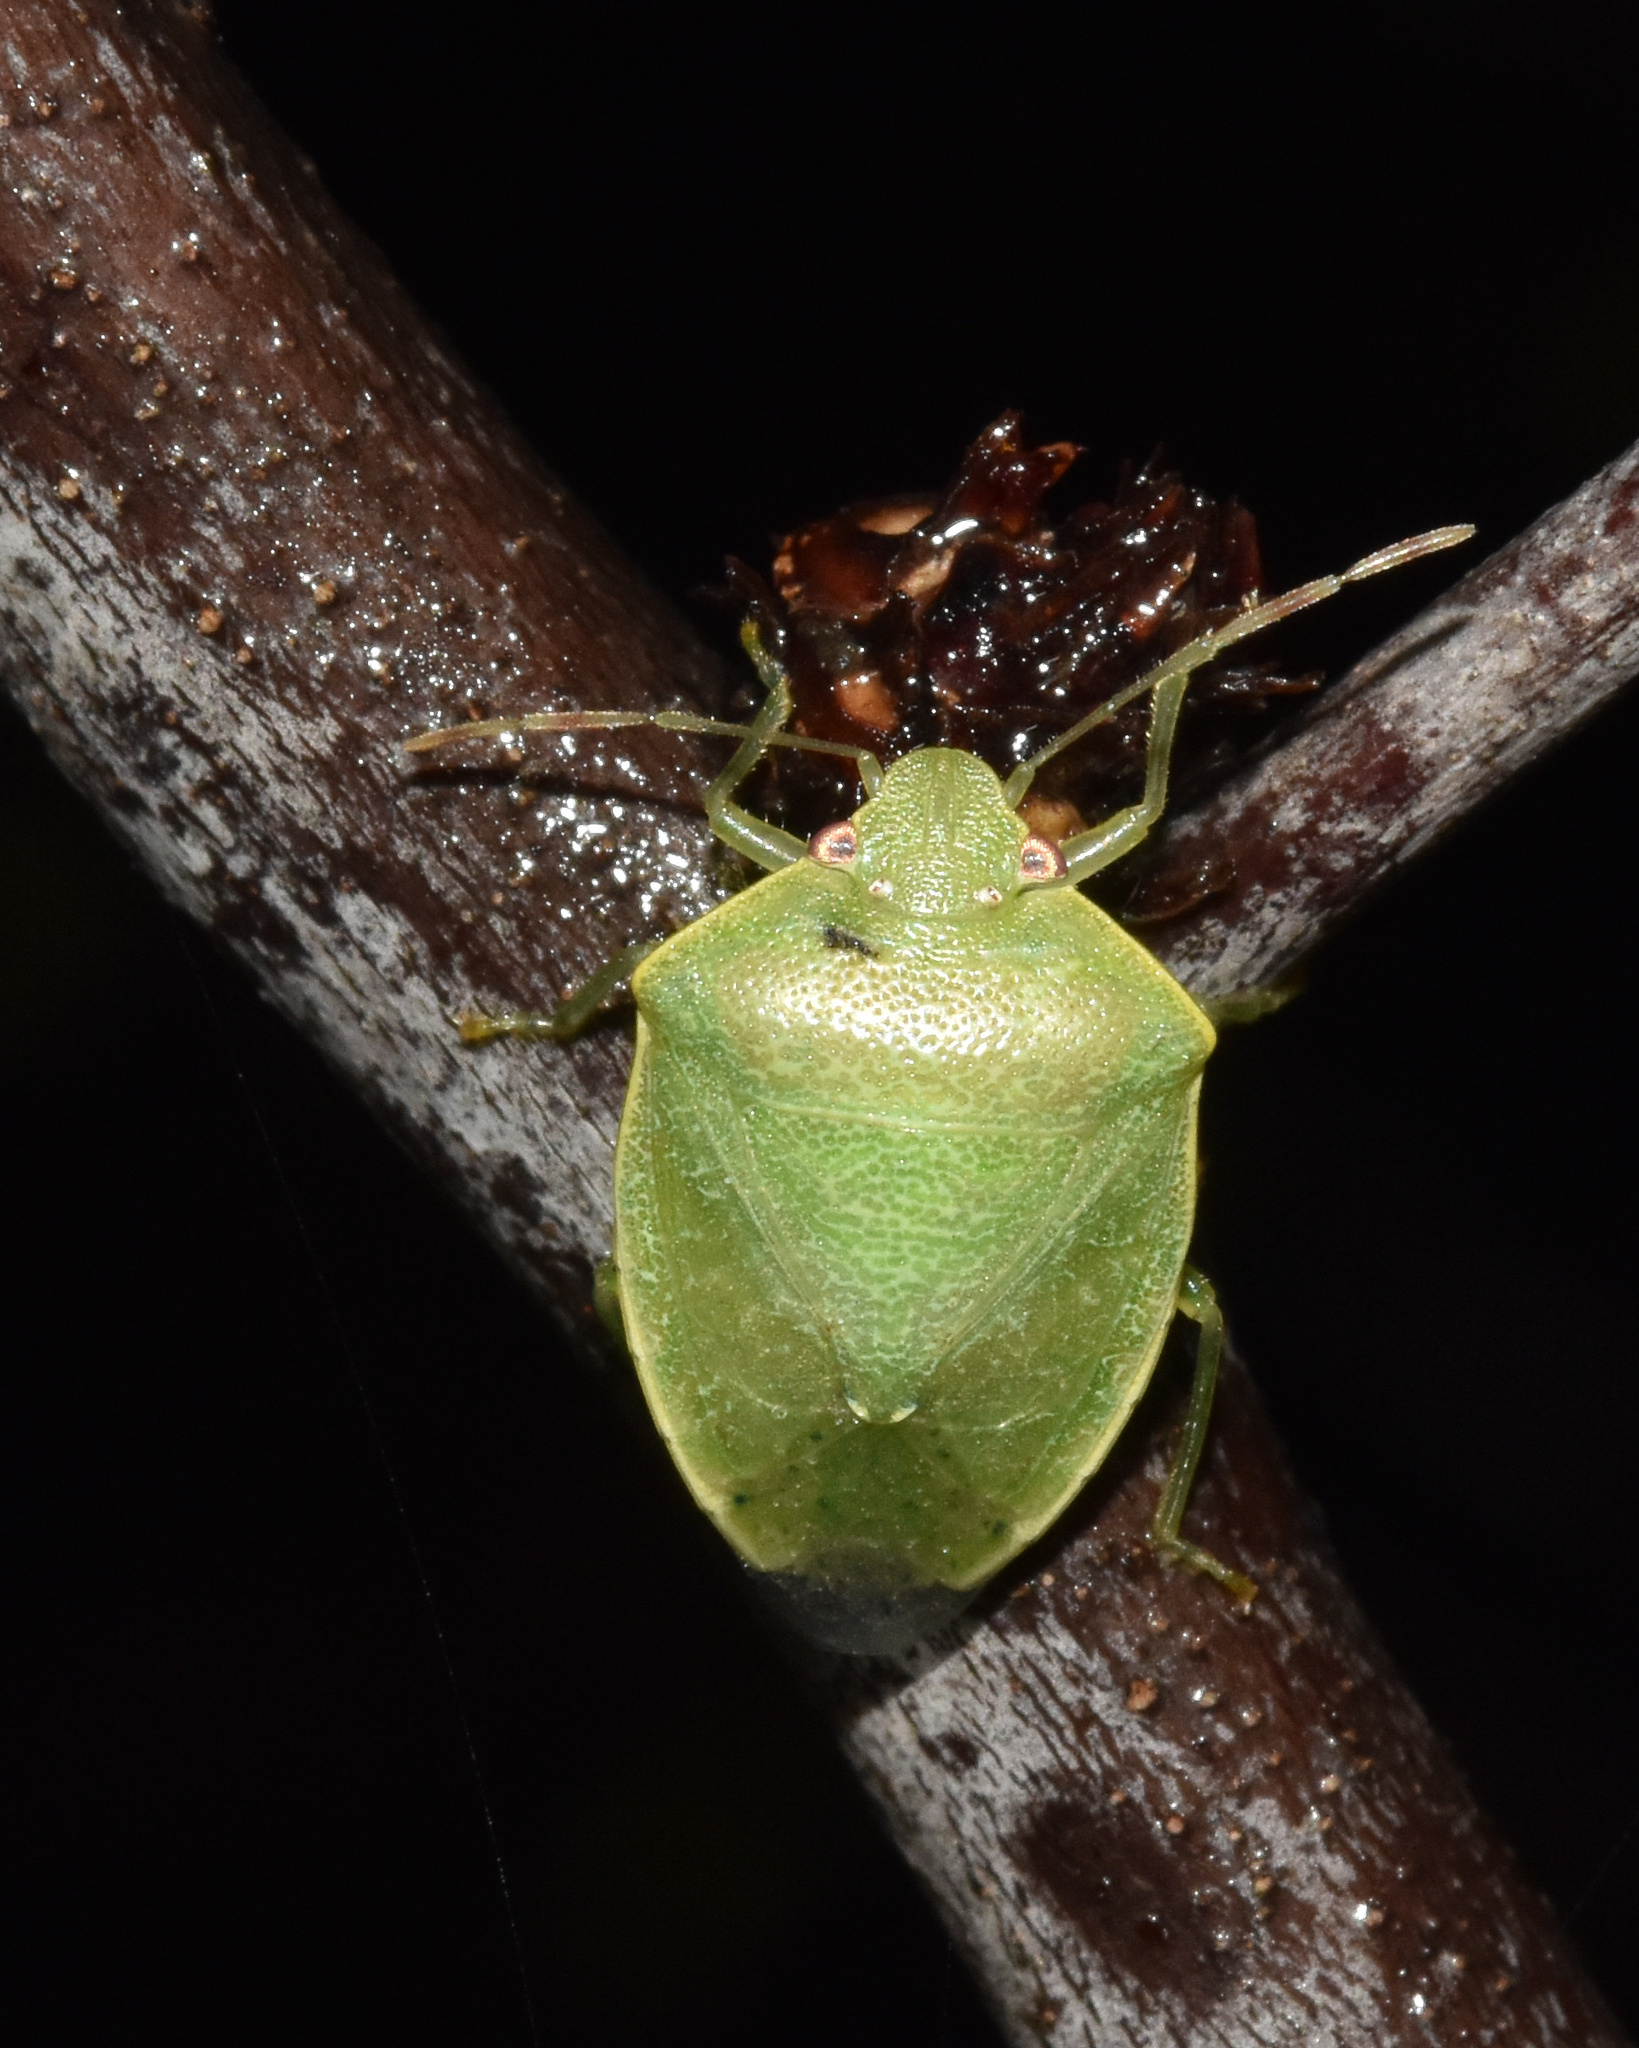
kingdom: Animalia
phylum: Arthropoda
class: Insecta
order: Hemiptera
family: Pentatomidae
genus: Parachinavia
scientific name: Parachinavia prunasis
